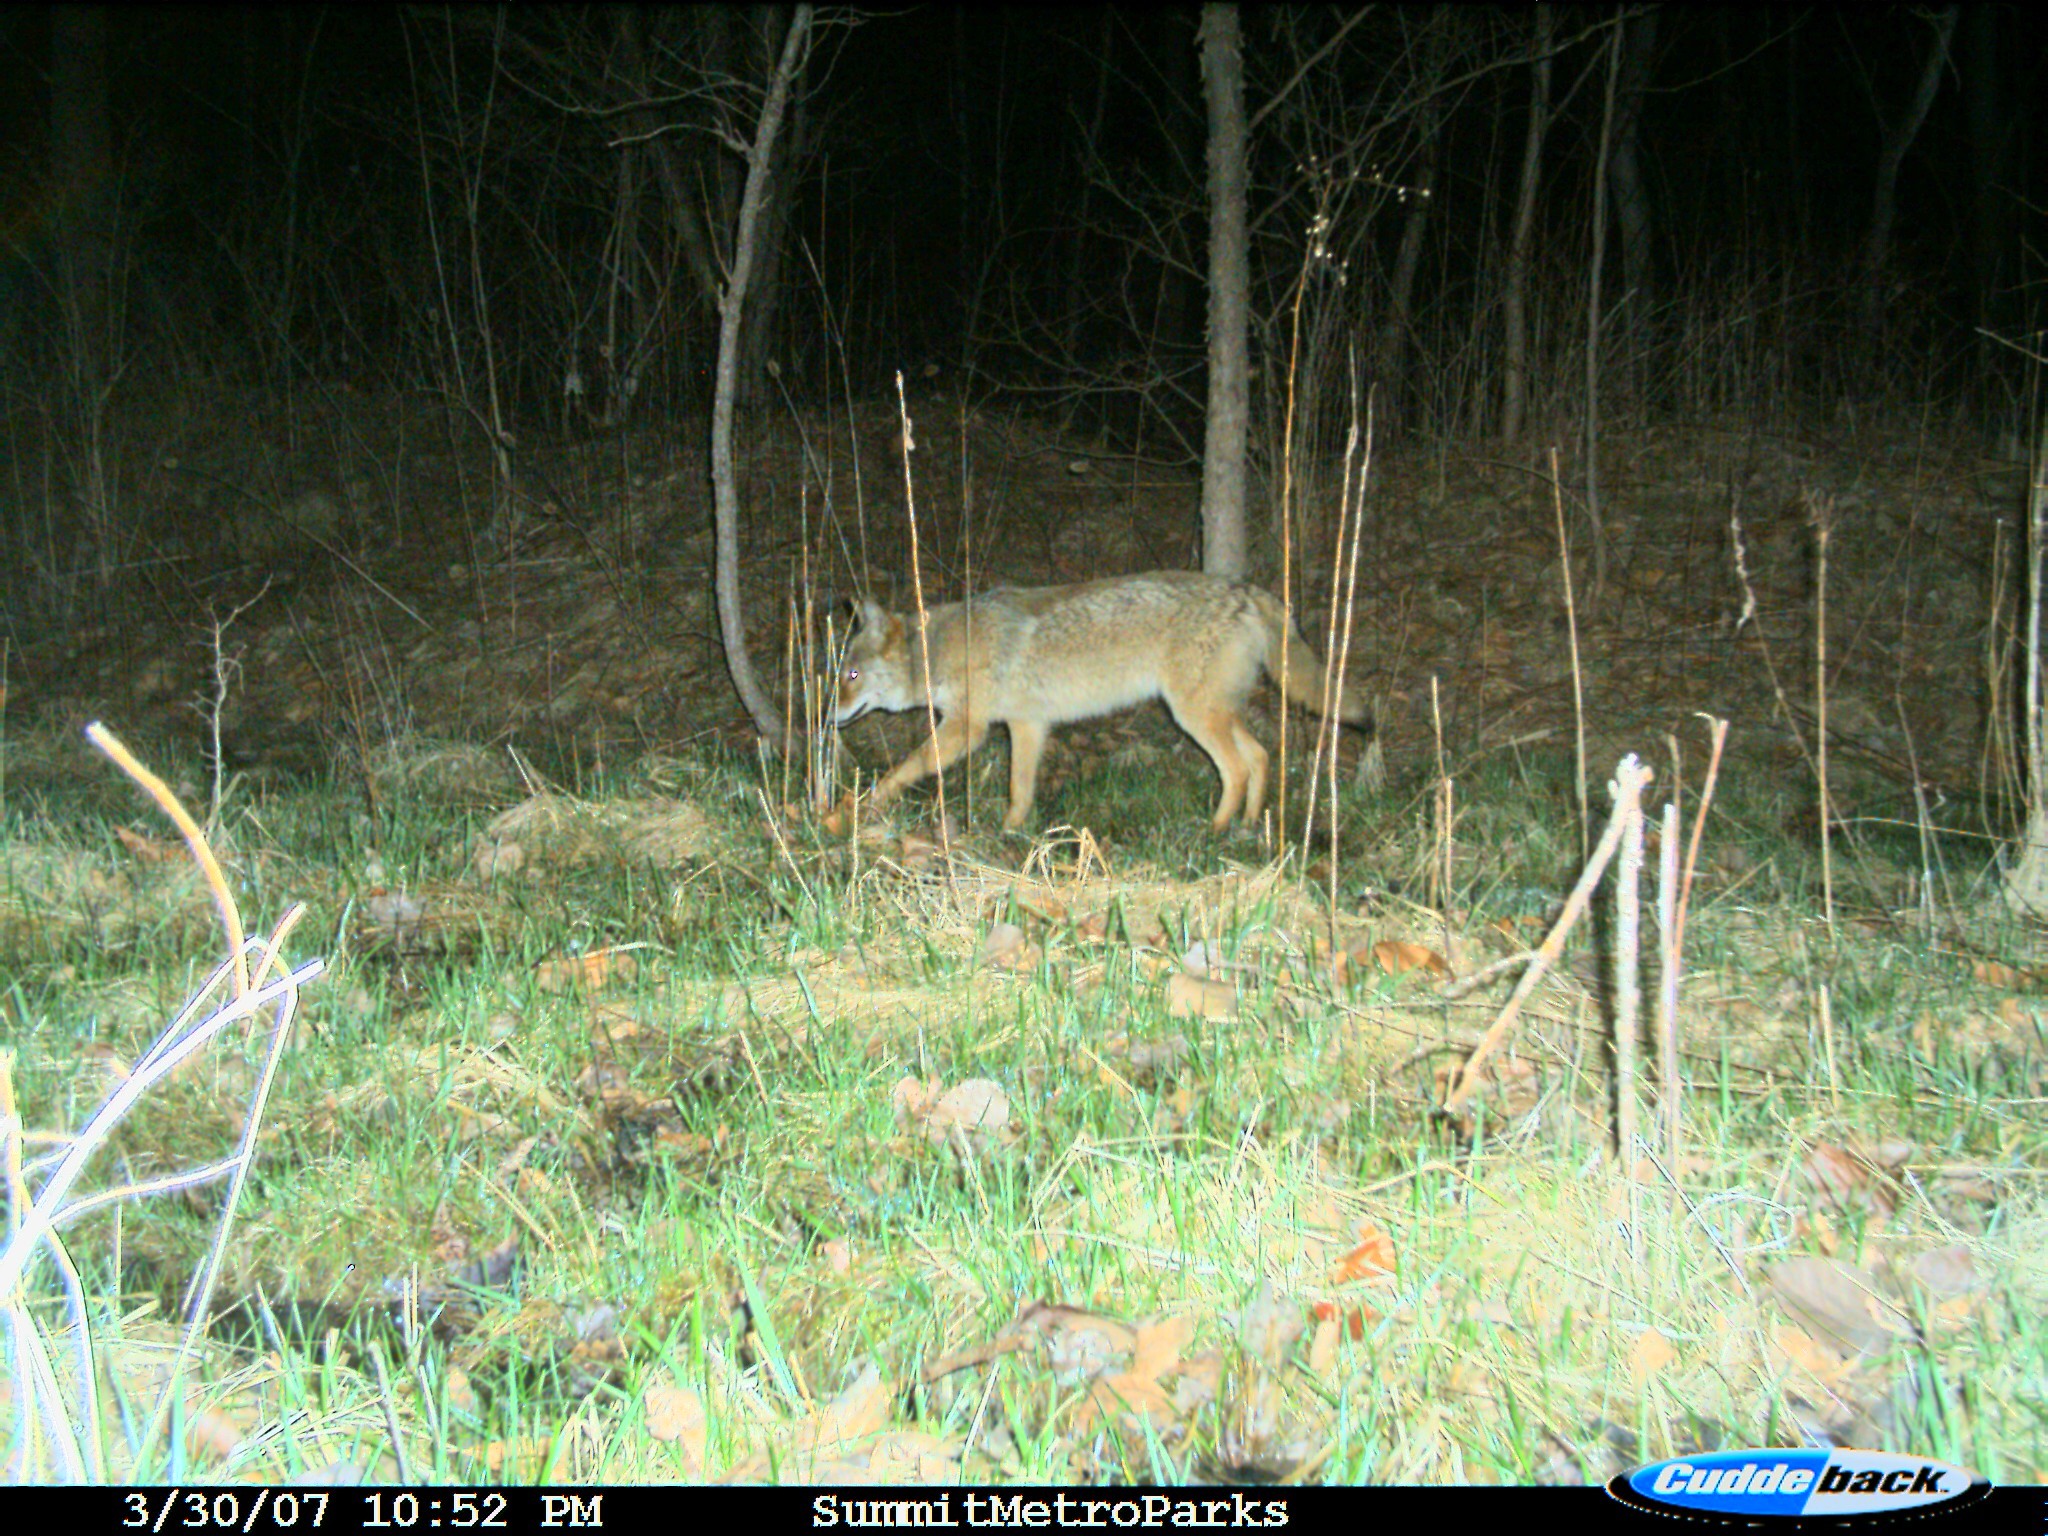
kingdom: Animalia
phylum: Chordata
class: Mammalia
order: Carnivora
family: Canidae
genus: Canis
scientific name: Canis latrans
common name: Coyote
